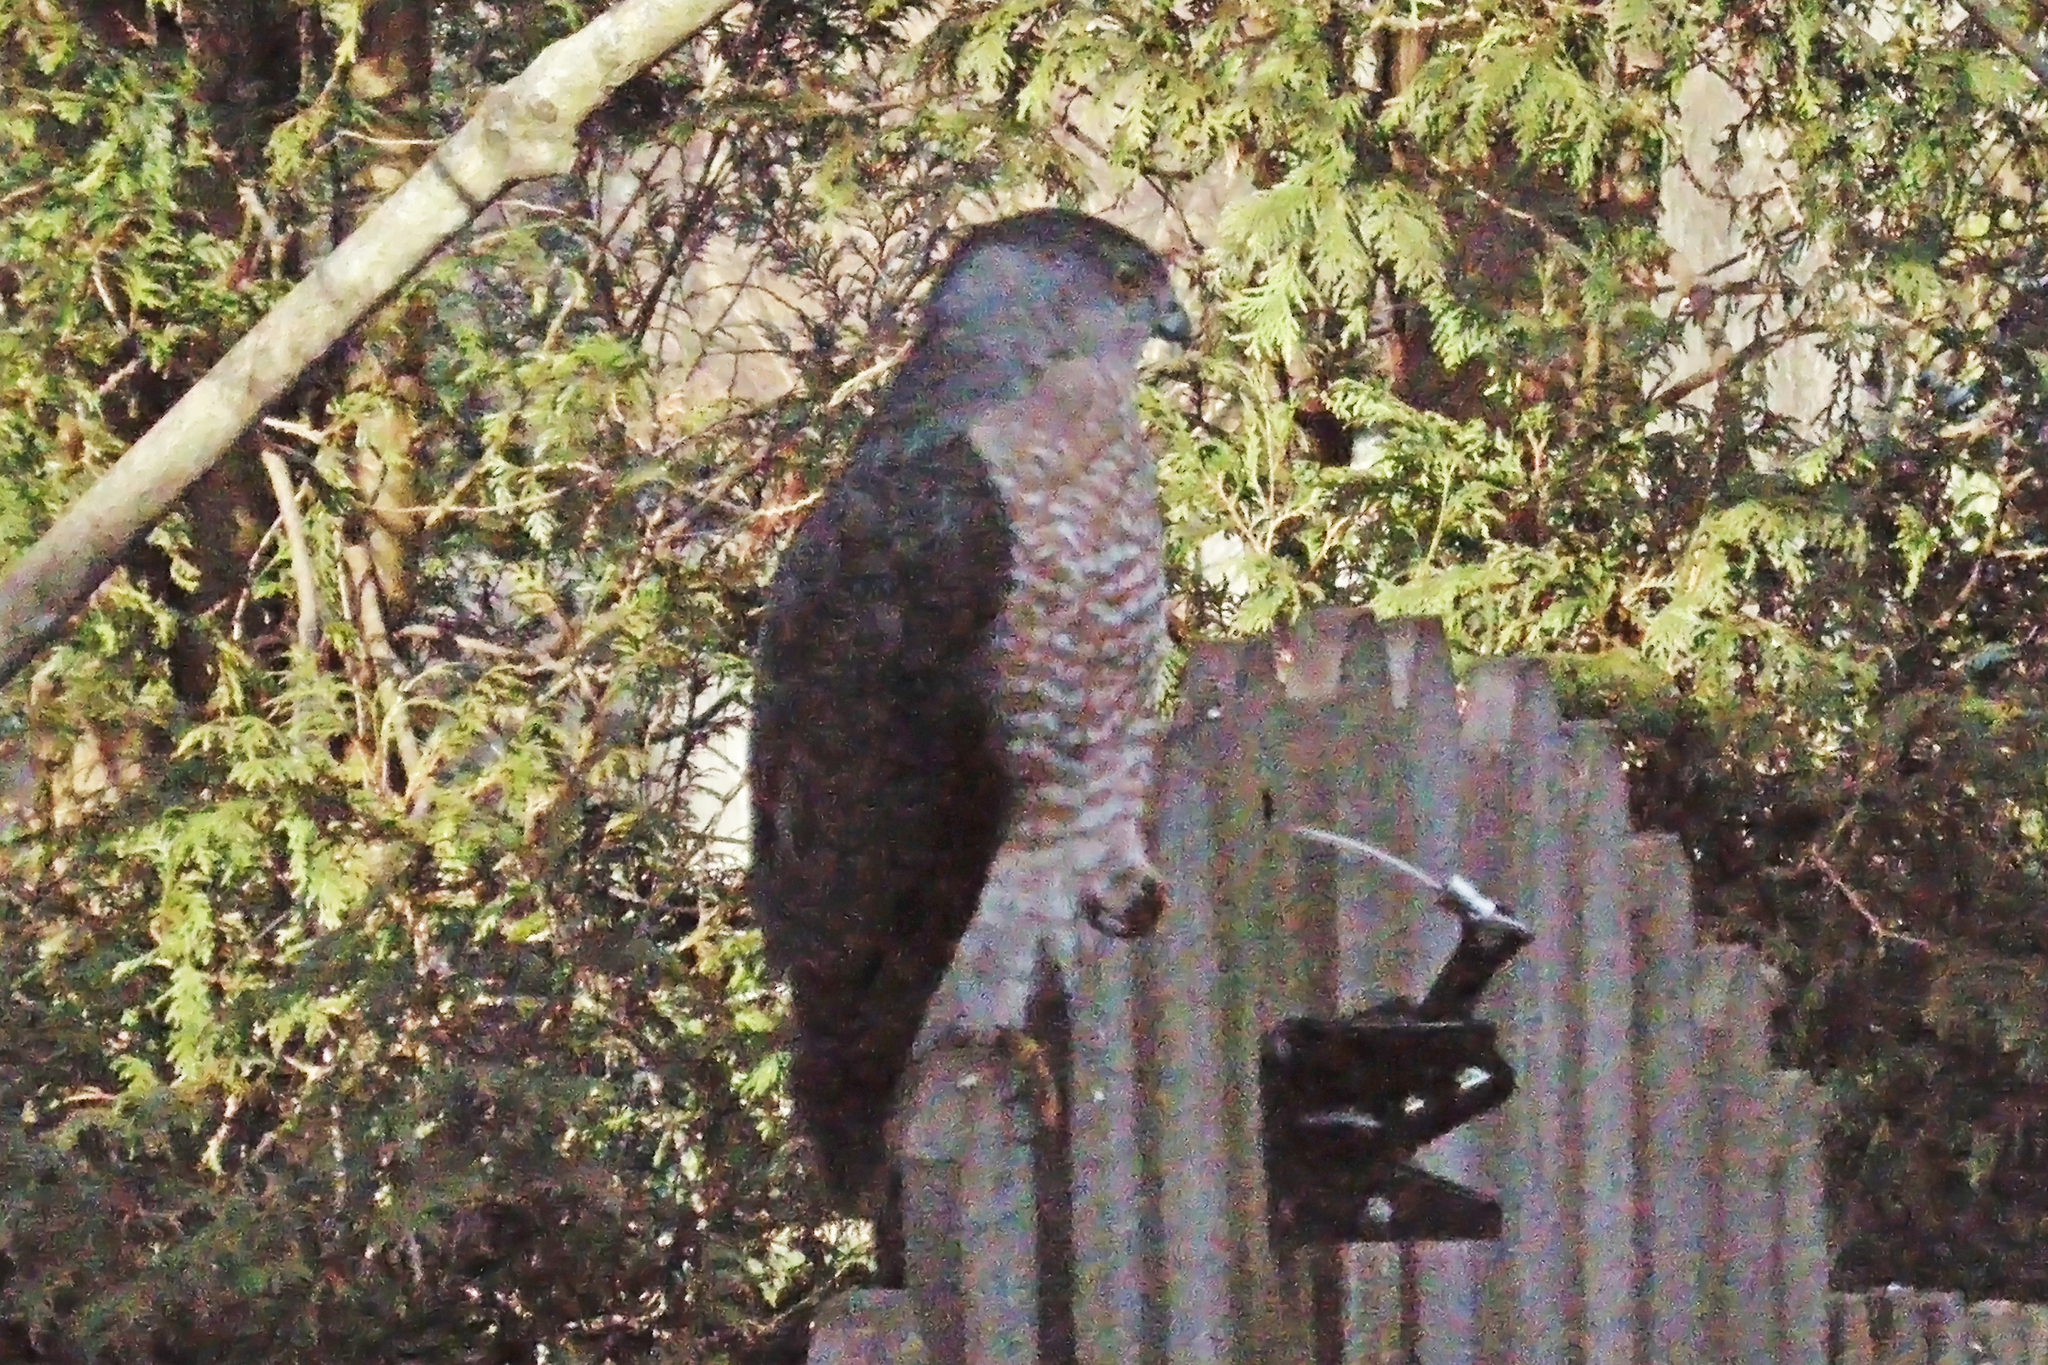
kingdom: Animalia
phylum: Chordata
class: Aves
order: Accipitriformes
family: Accipitridae
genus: Accipiter
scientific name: Accipiter cooperii
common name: Cooper's hawk
